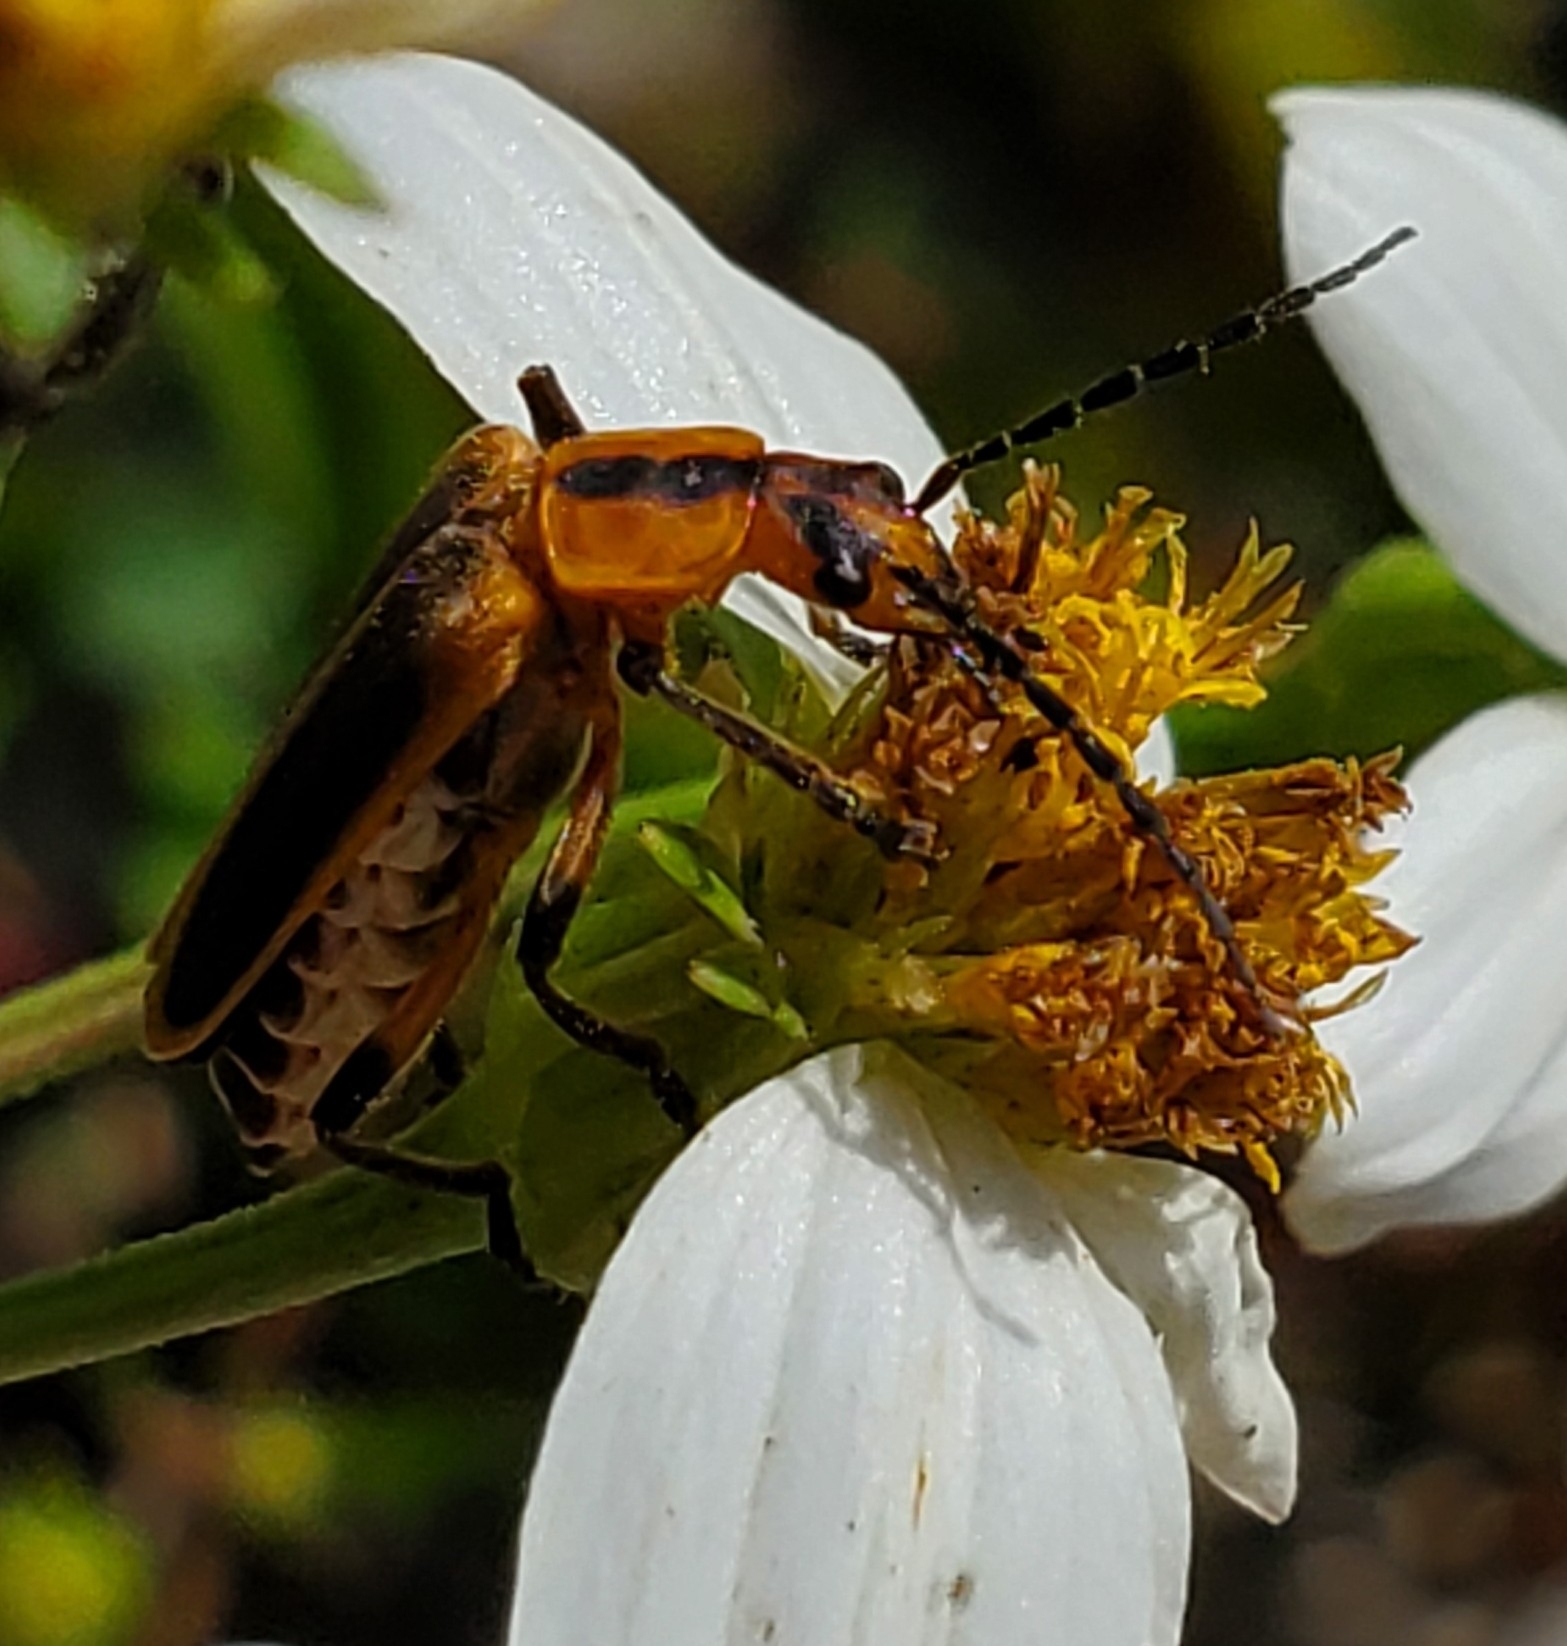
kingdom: Animalia
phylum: Arthropoda
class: Insecta
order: Coleoptera
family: Cantharidae
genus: Chauliognathus
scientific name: Chauliognathus marginatus
